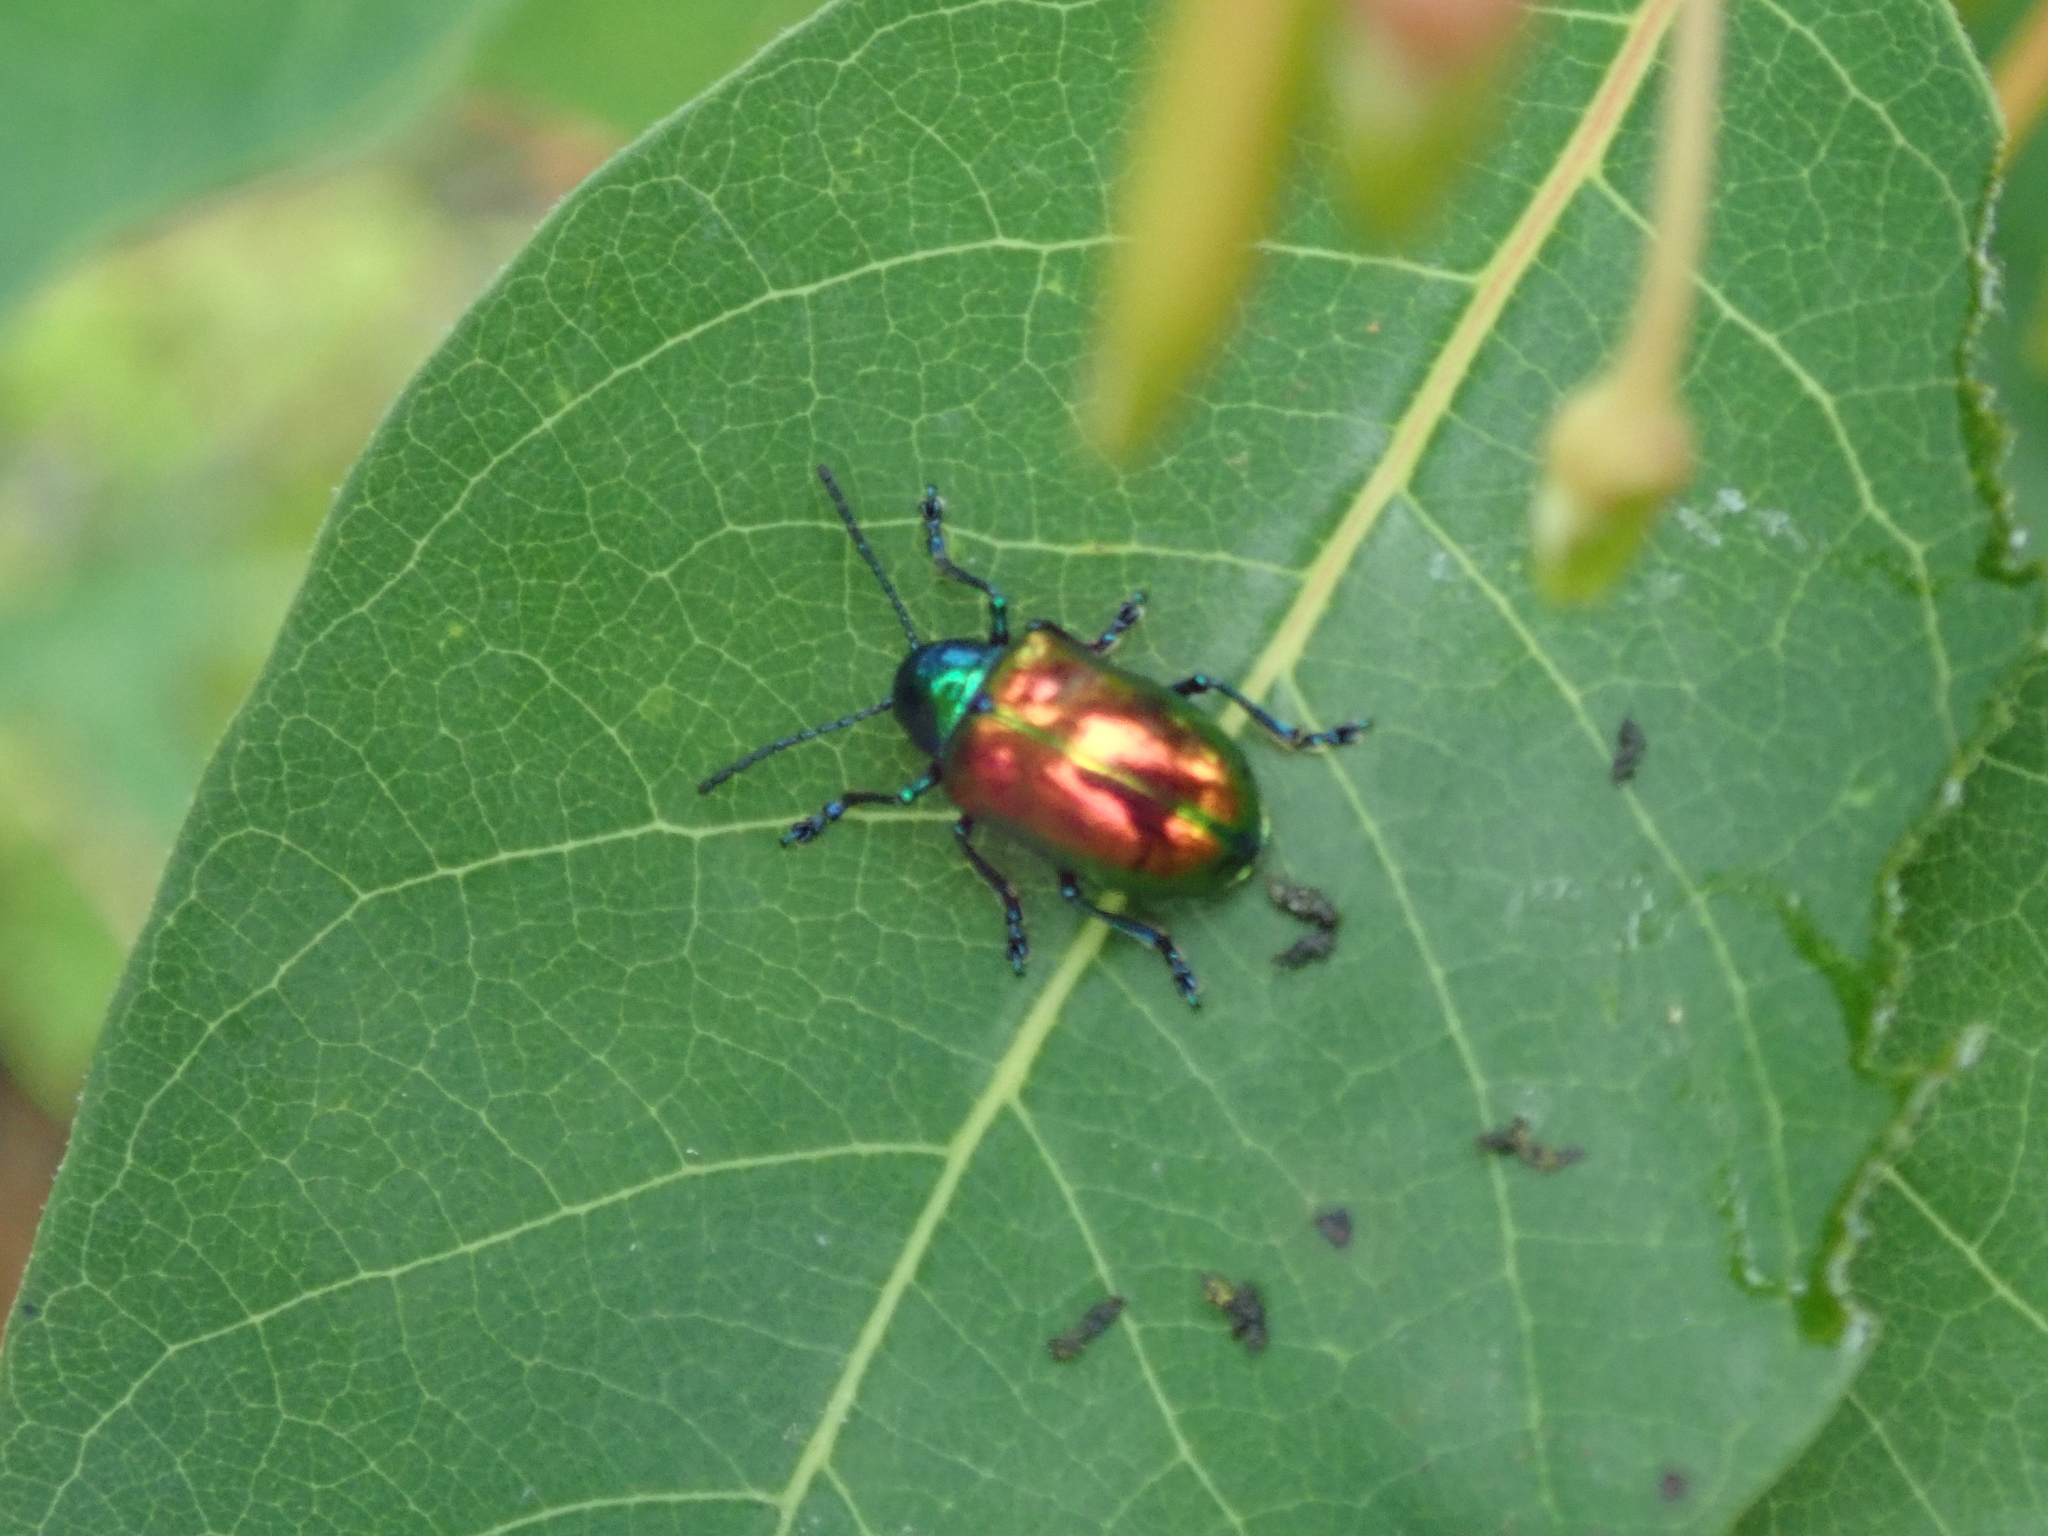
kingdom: Animalia
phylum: Arthropoda
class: Insecta
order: Coleoptera
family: Chrysomelidae
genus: Chrysochus
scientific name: Chrysochus auratus
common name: Dogbane leaf beetle
